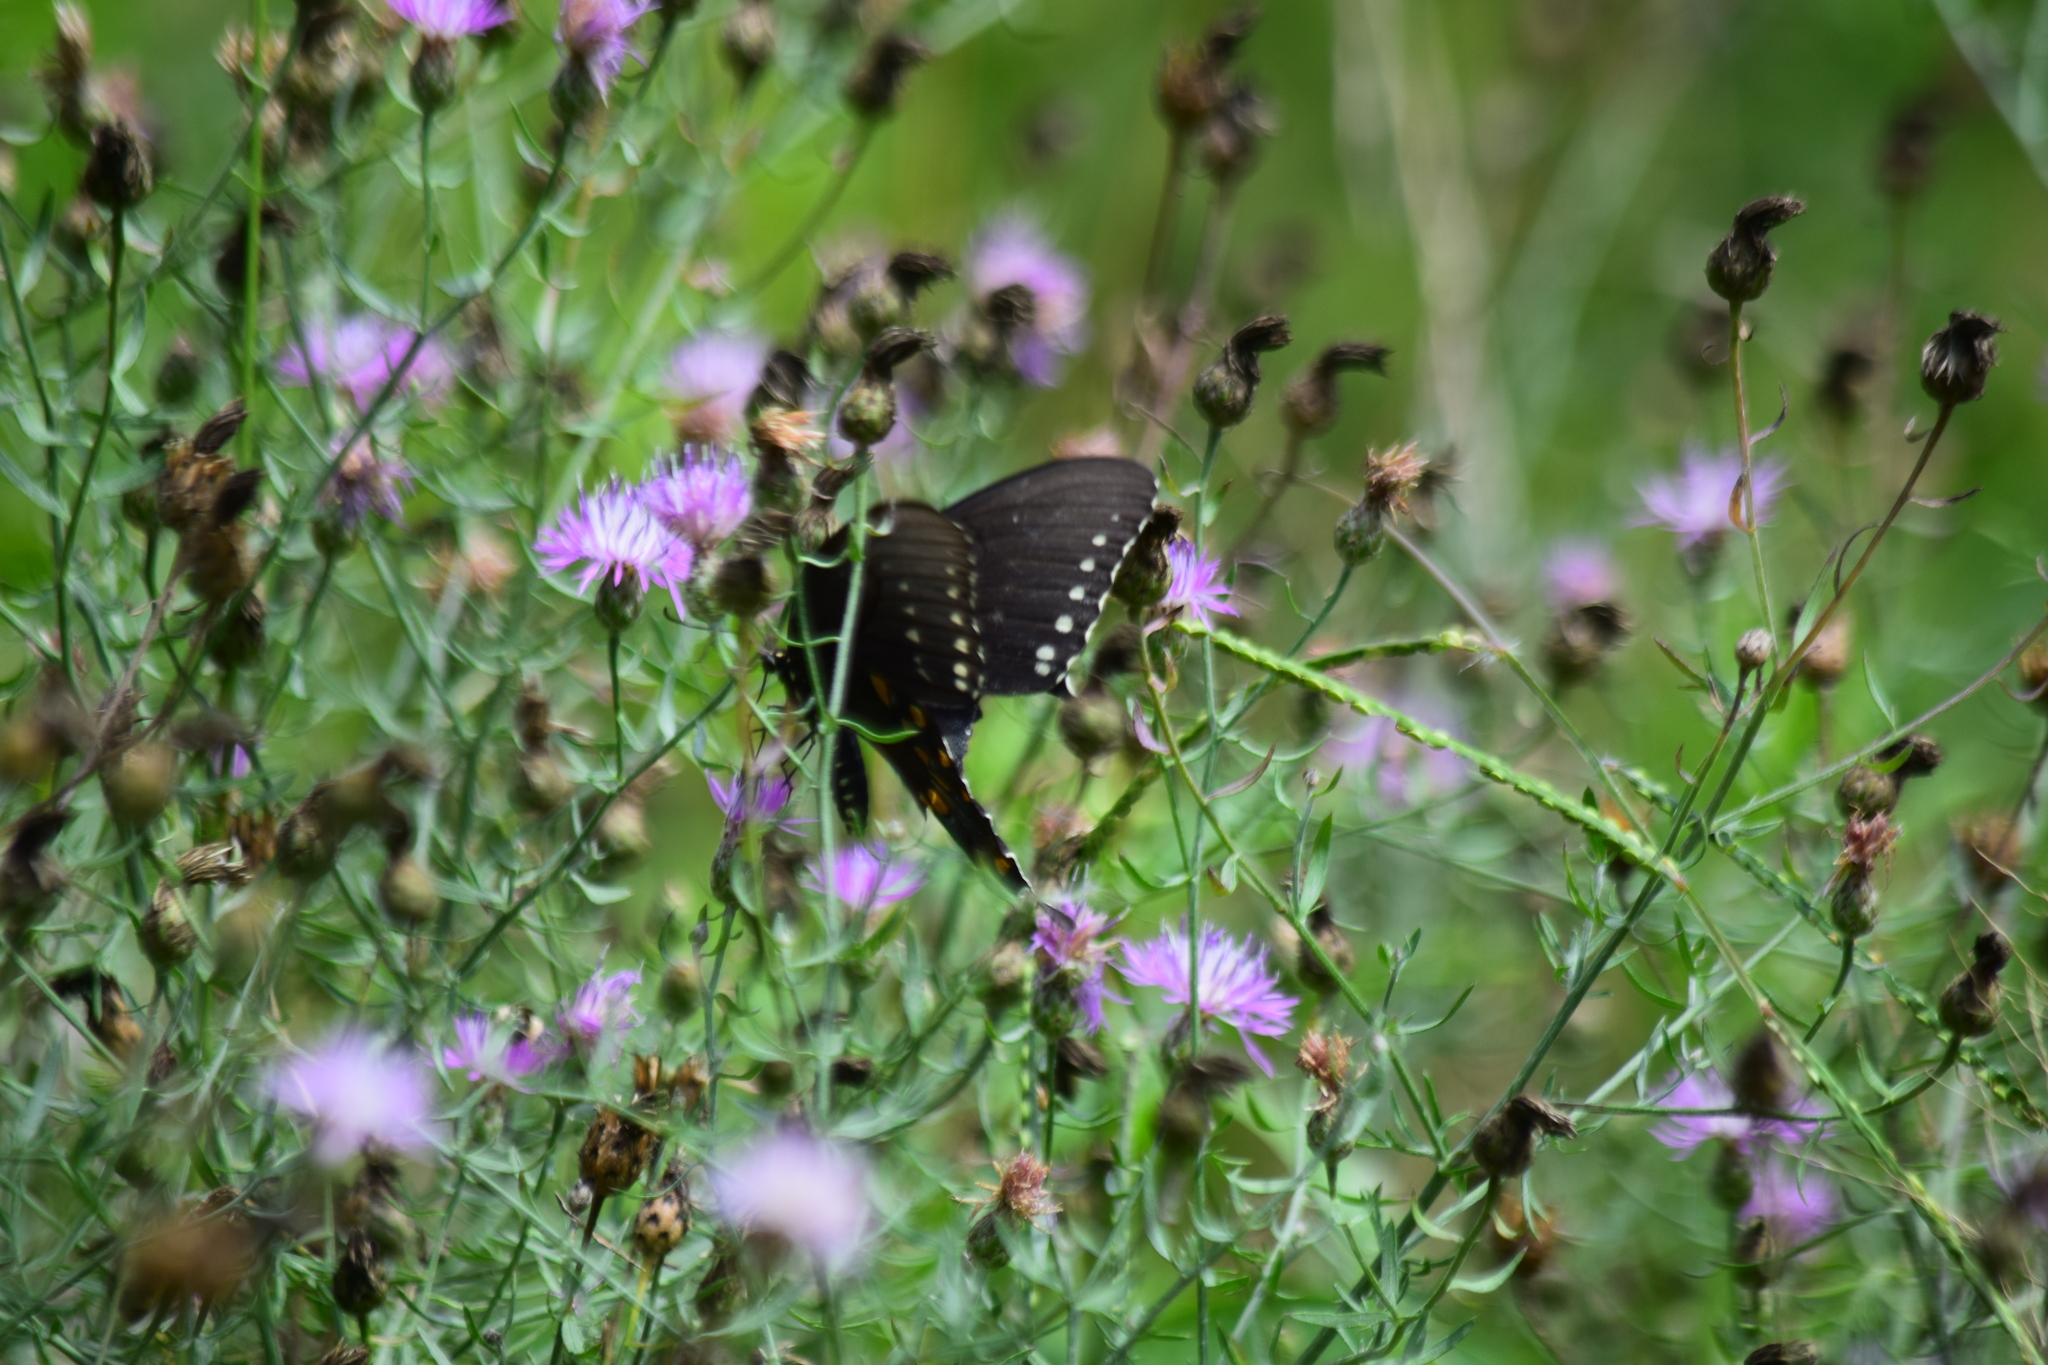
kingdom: Animalia
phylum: Arthropoda
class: Insecta
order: Lepidoptera
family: Papilionidae
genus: Papilio
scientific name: Papilio troilus
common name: Spicebush swallowtail
